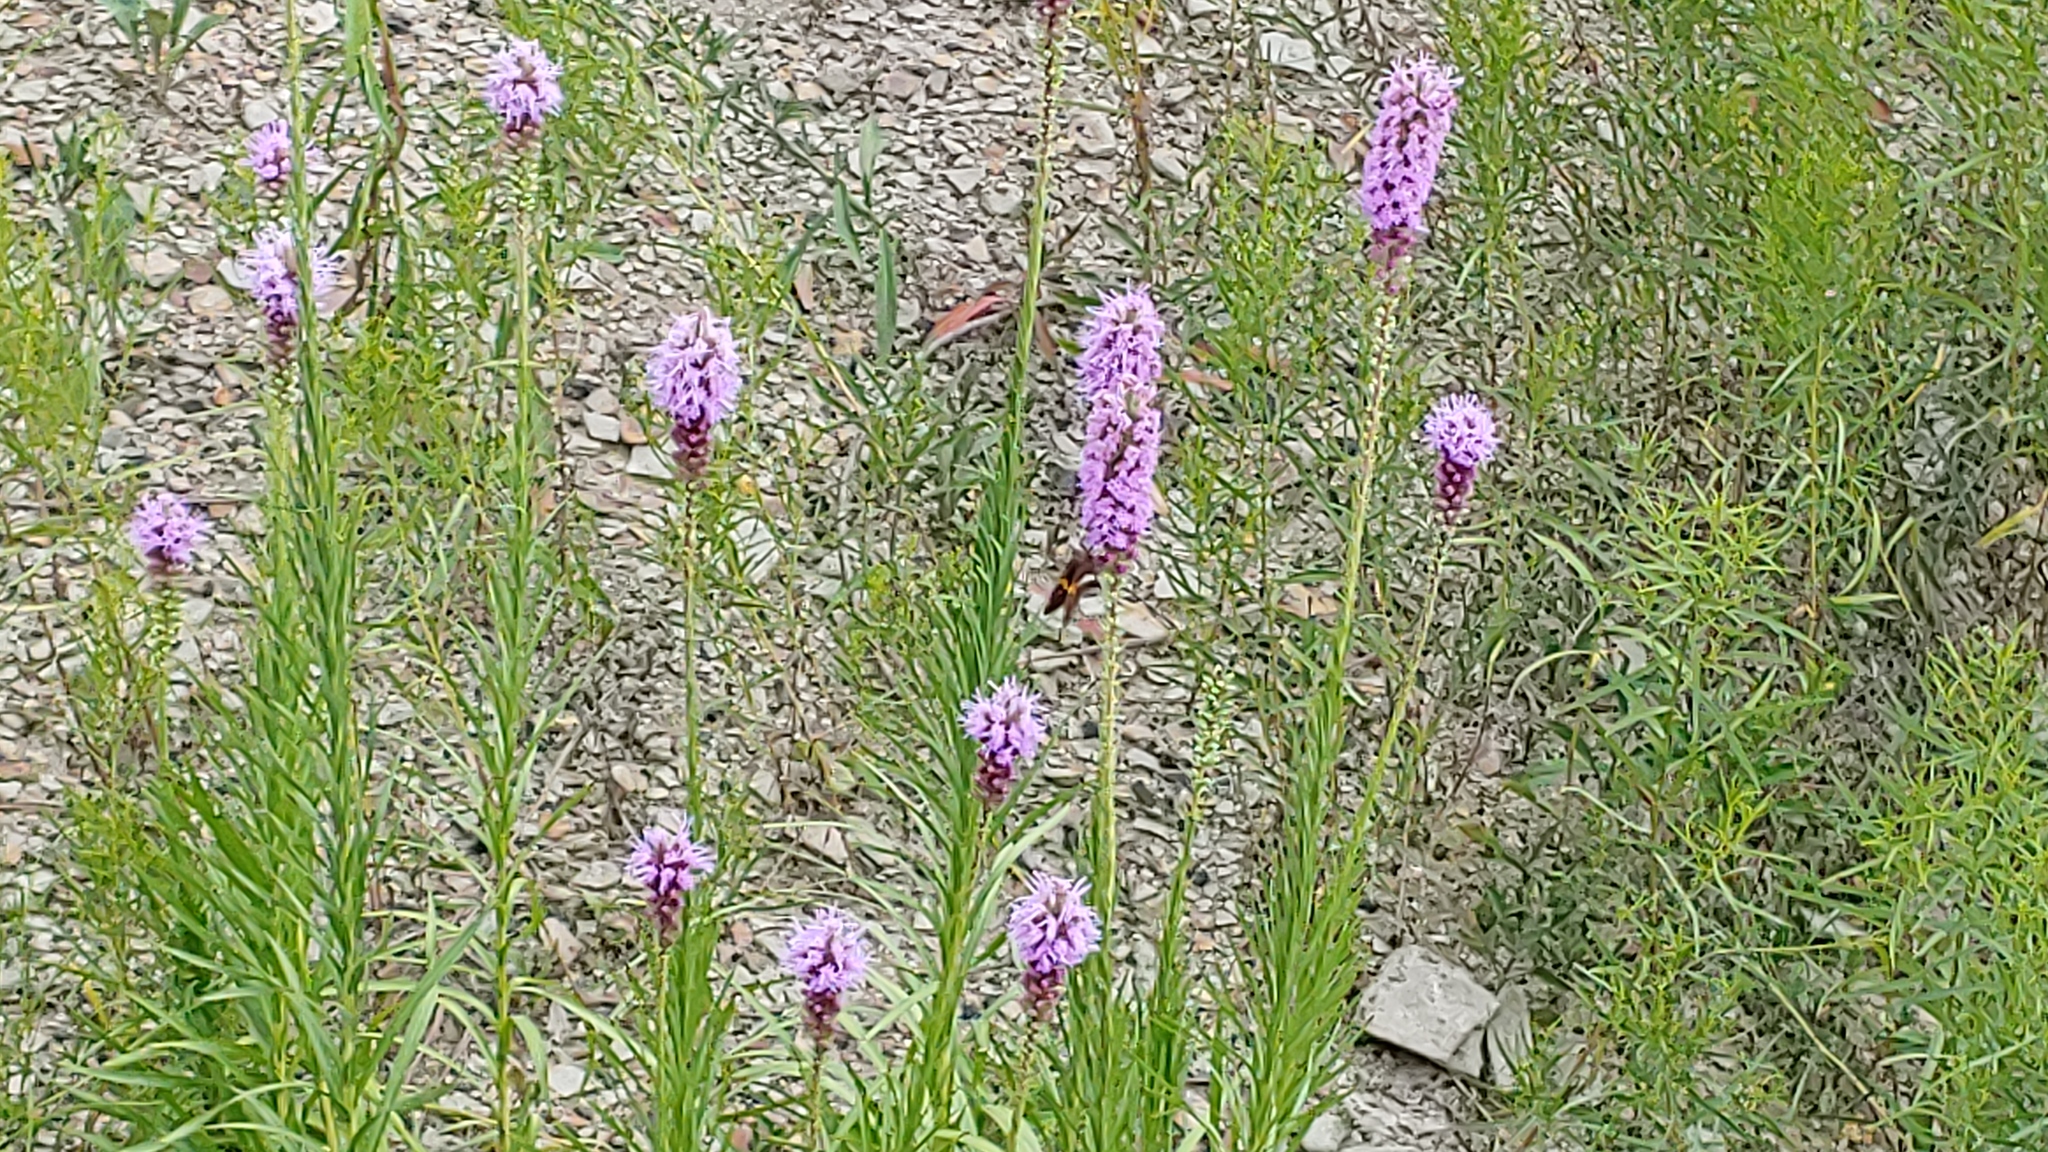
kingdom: Animalia
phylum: Arthropoda
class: Insecta
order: Lepidoptera
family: Hesperiidae
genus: Epargyreus
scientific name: Epargyreus clarus
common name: Silver-spotted skipper
